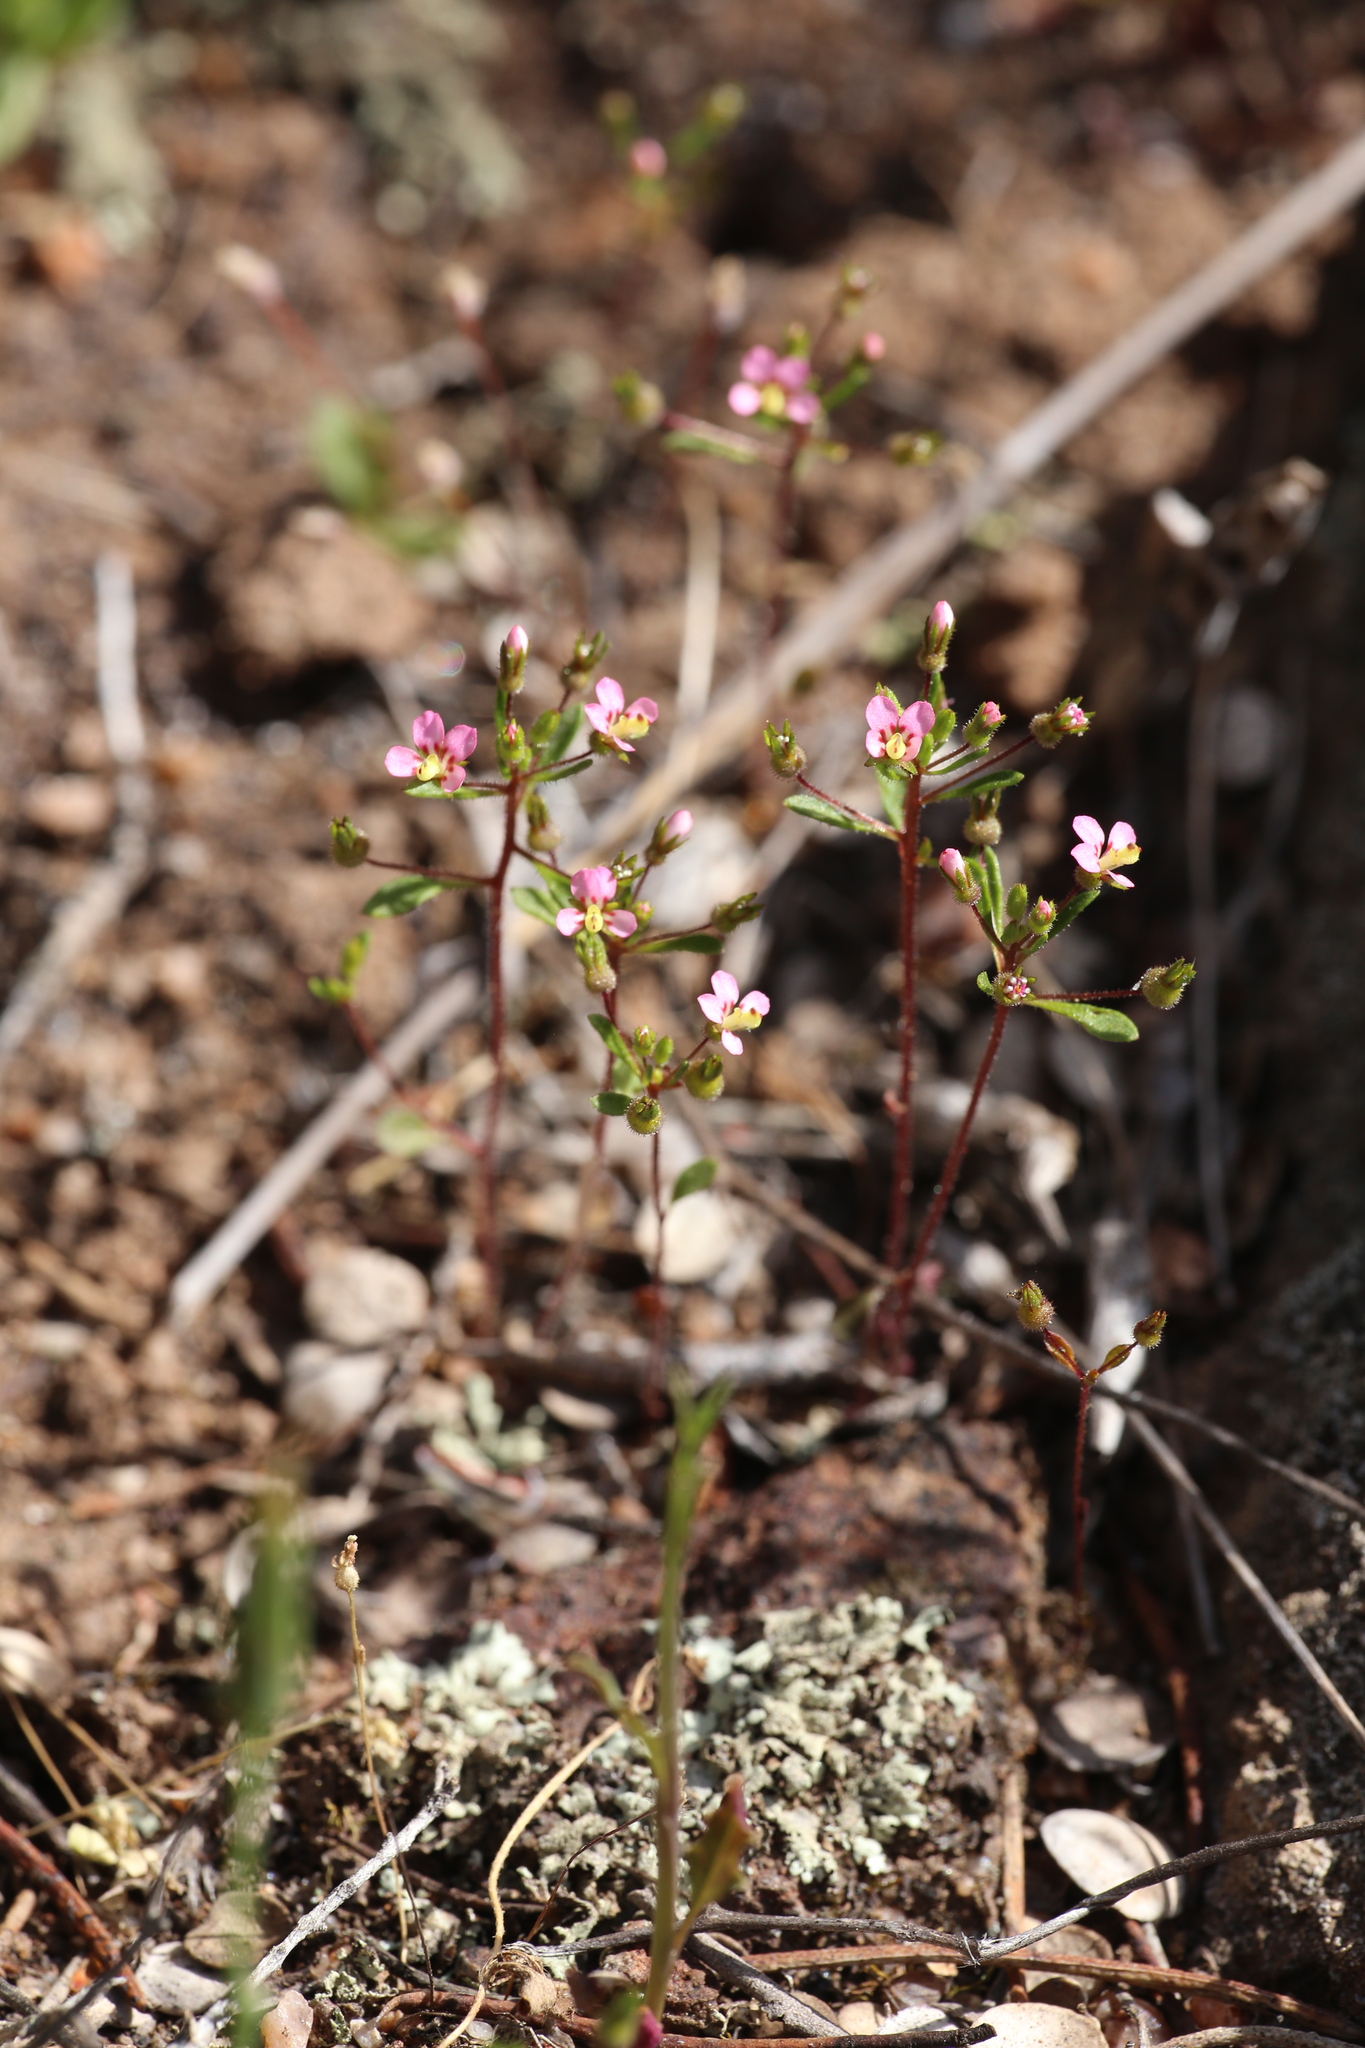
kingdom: Plantae
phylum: Tracheophyta
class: Magnoliopsida
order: Asterales
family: Stylidiaceae
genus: Levenhookia
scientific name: Levenhookia stipitata
